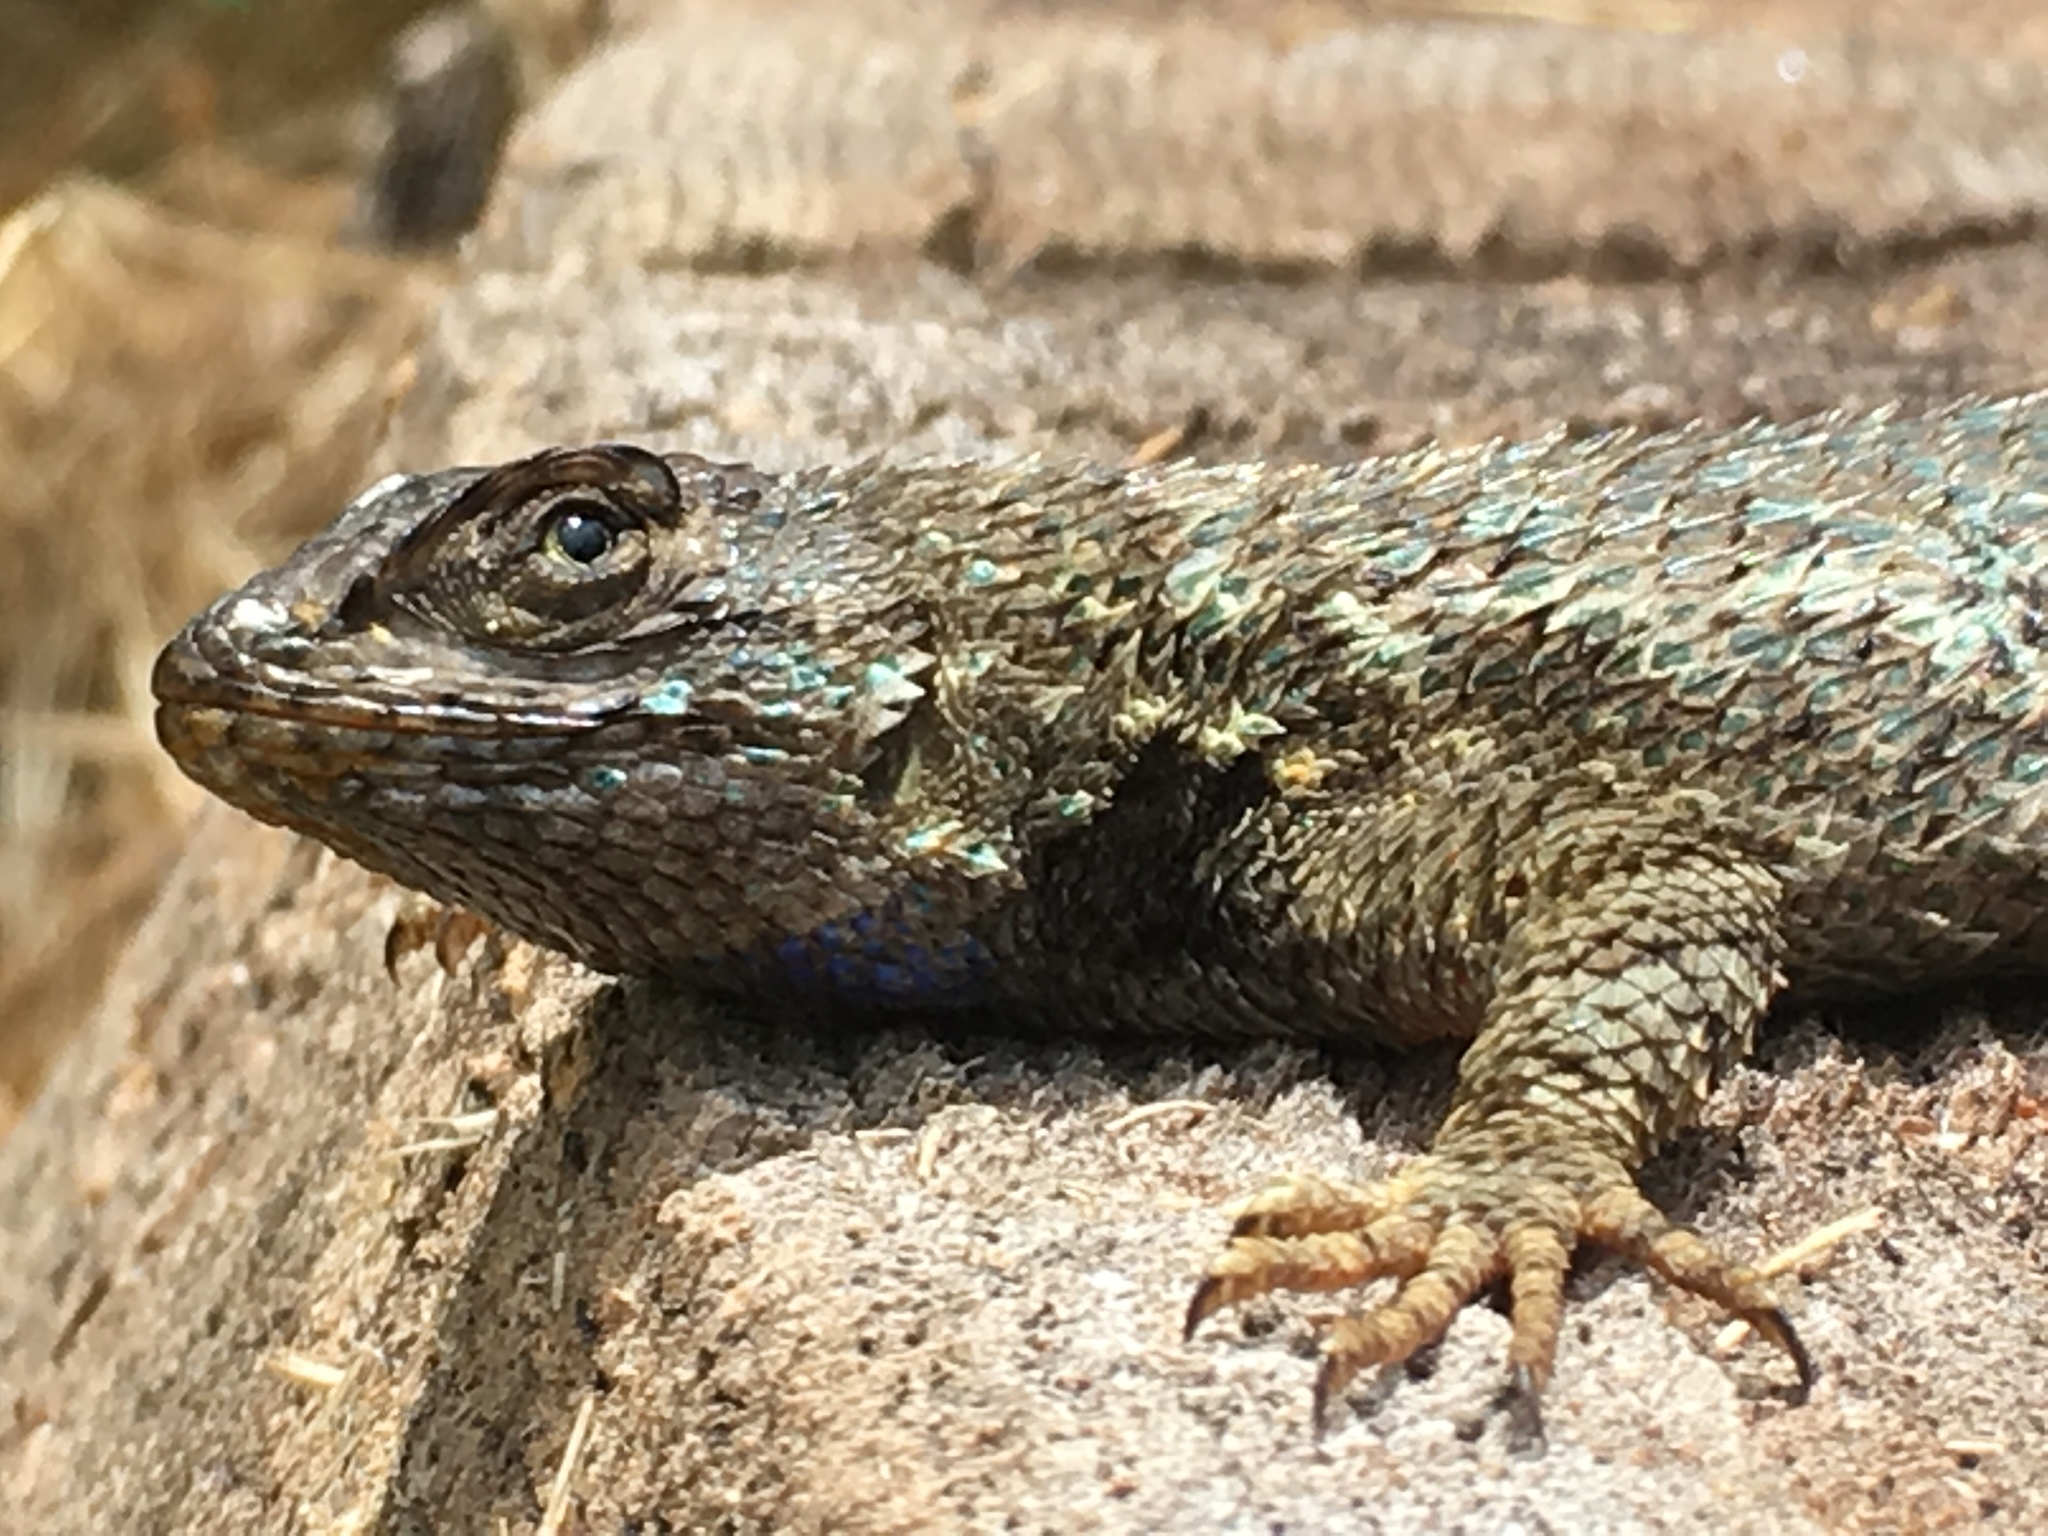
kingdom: Animalia
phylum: Chordata
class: Squamata
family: Phrynosomatidae
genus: Sceloporus
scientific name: Sceloporus occidentalis
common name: Western fence lizard
